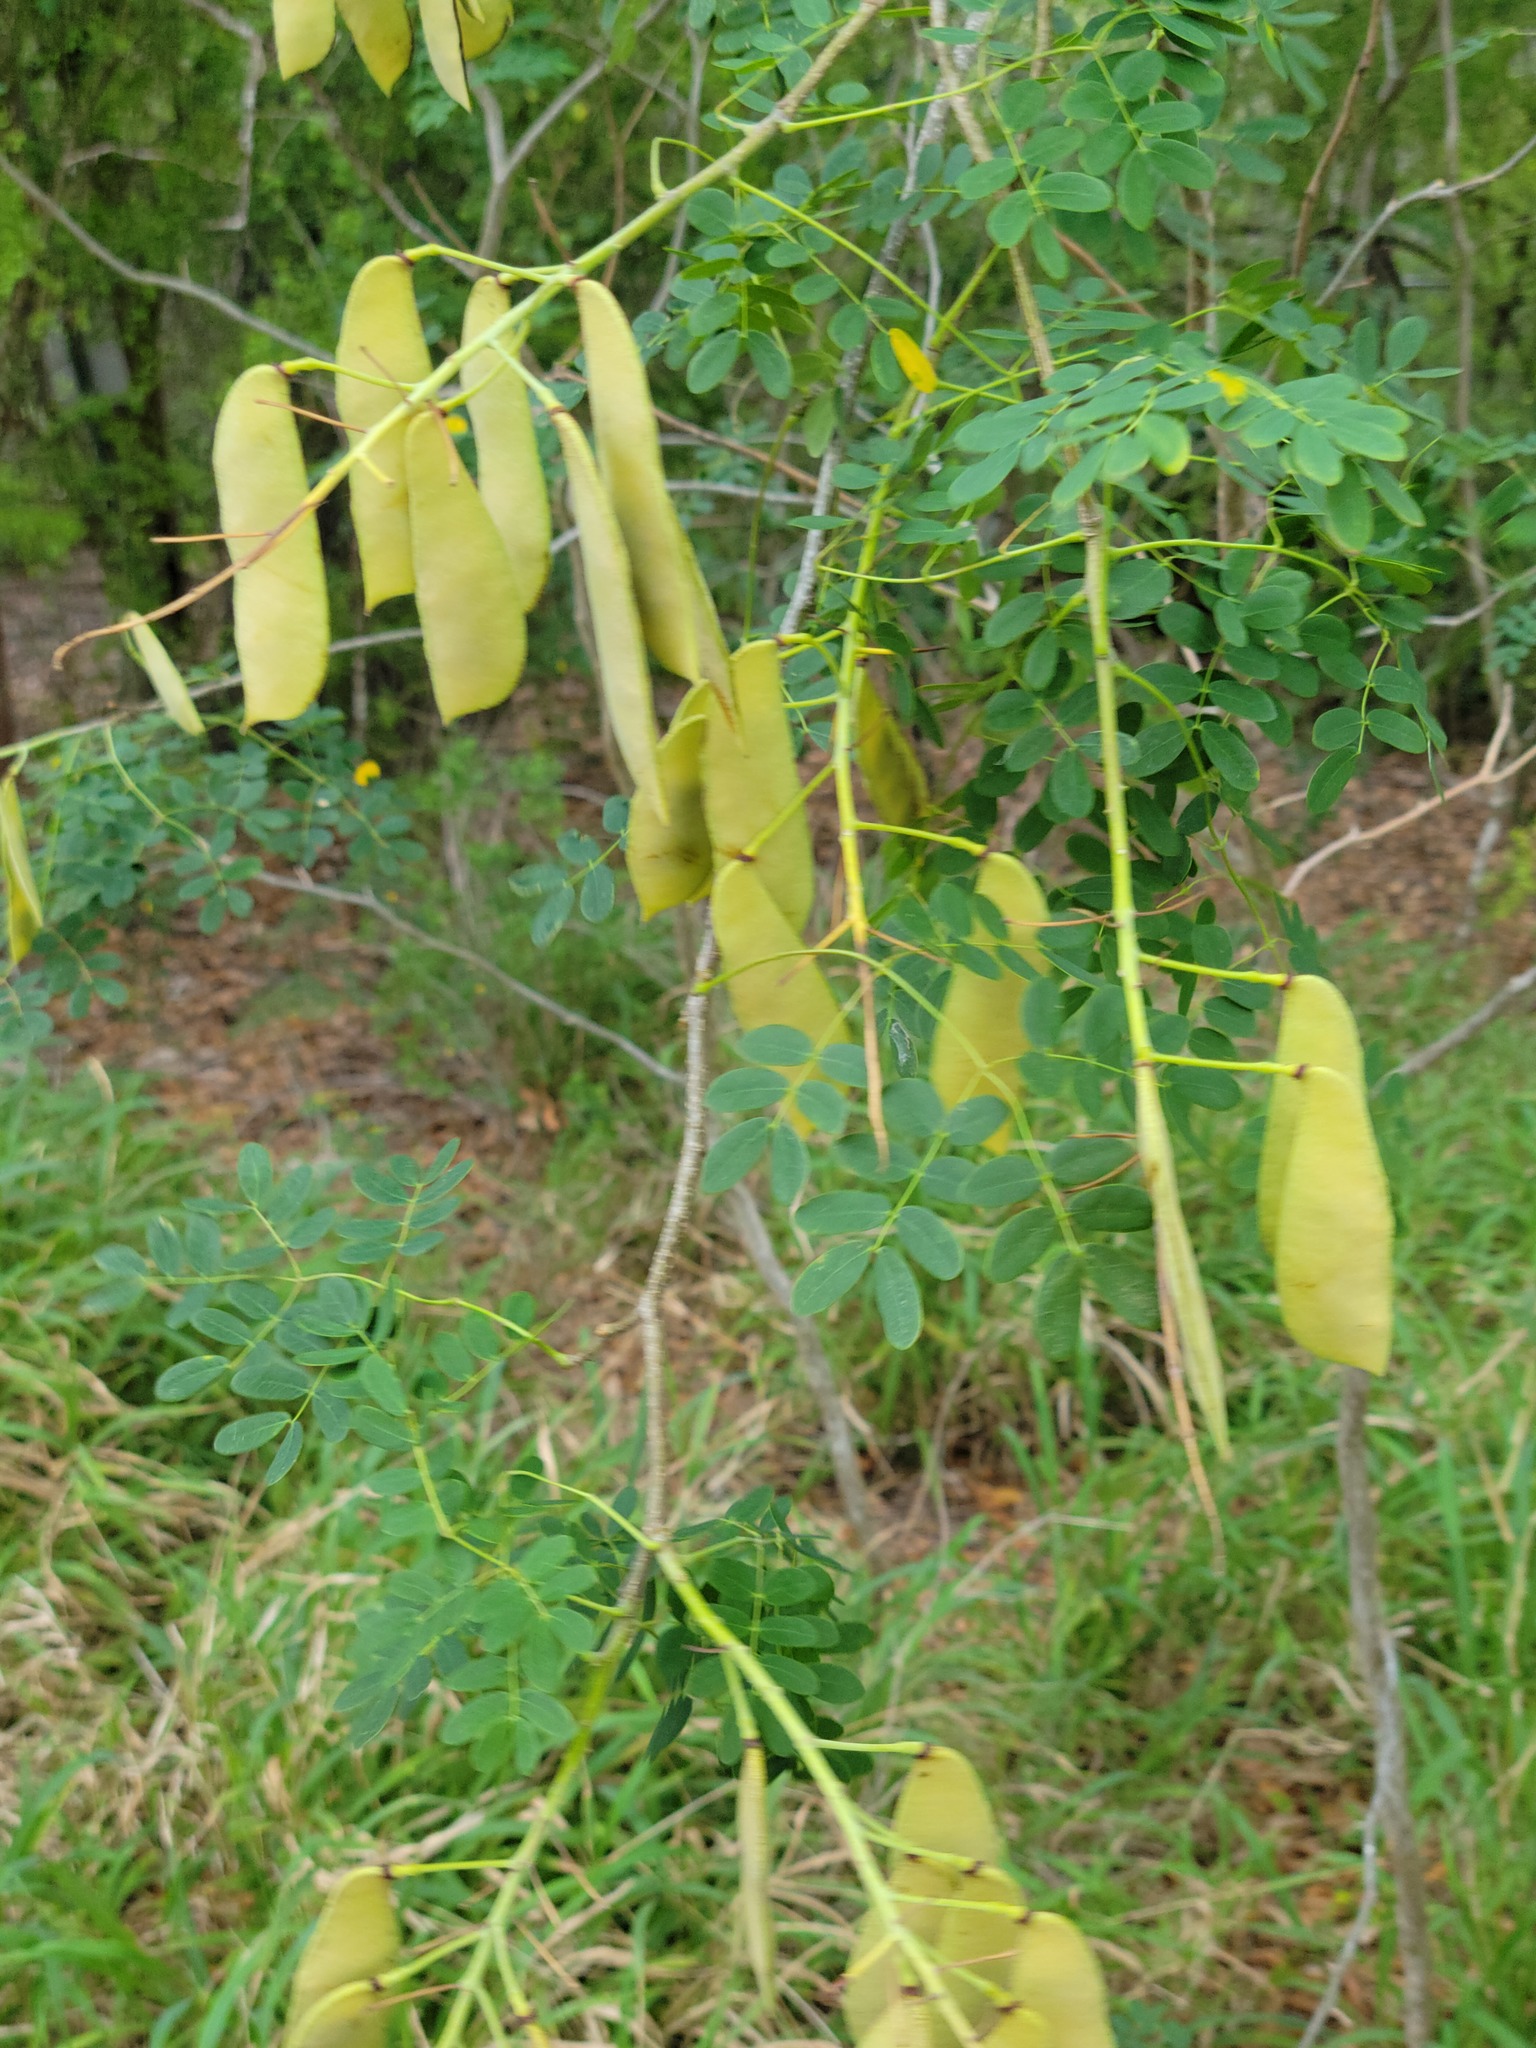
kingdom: Plantae
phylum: Tracheophyta
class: Magnoliopsida
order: Fabales
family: Fabaceae
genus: Erythrostemon
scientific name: Erythrostemon mexicanus
